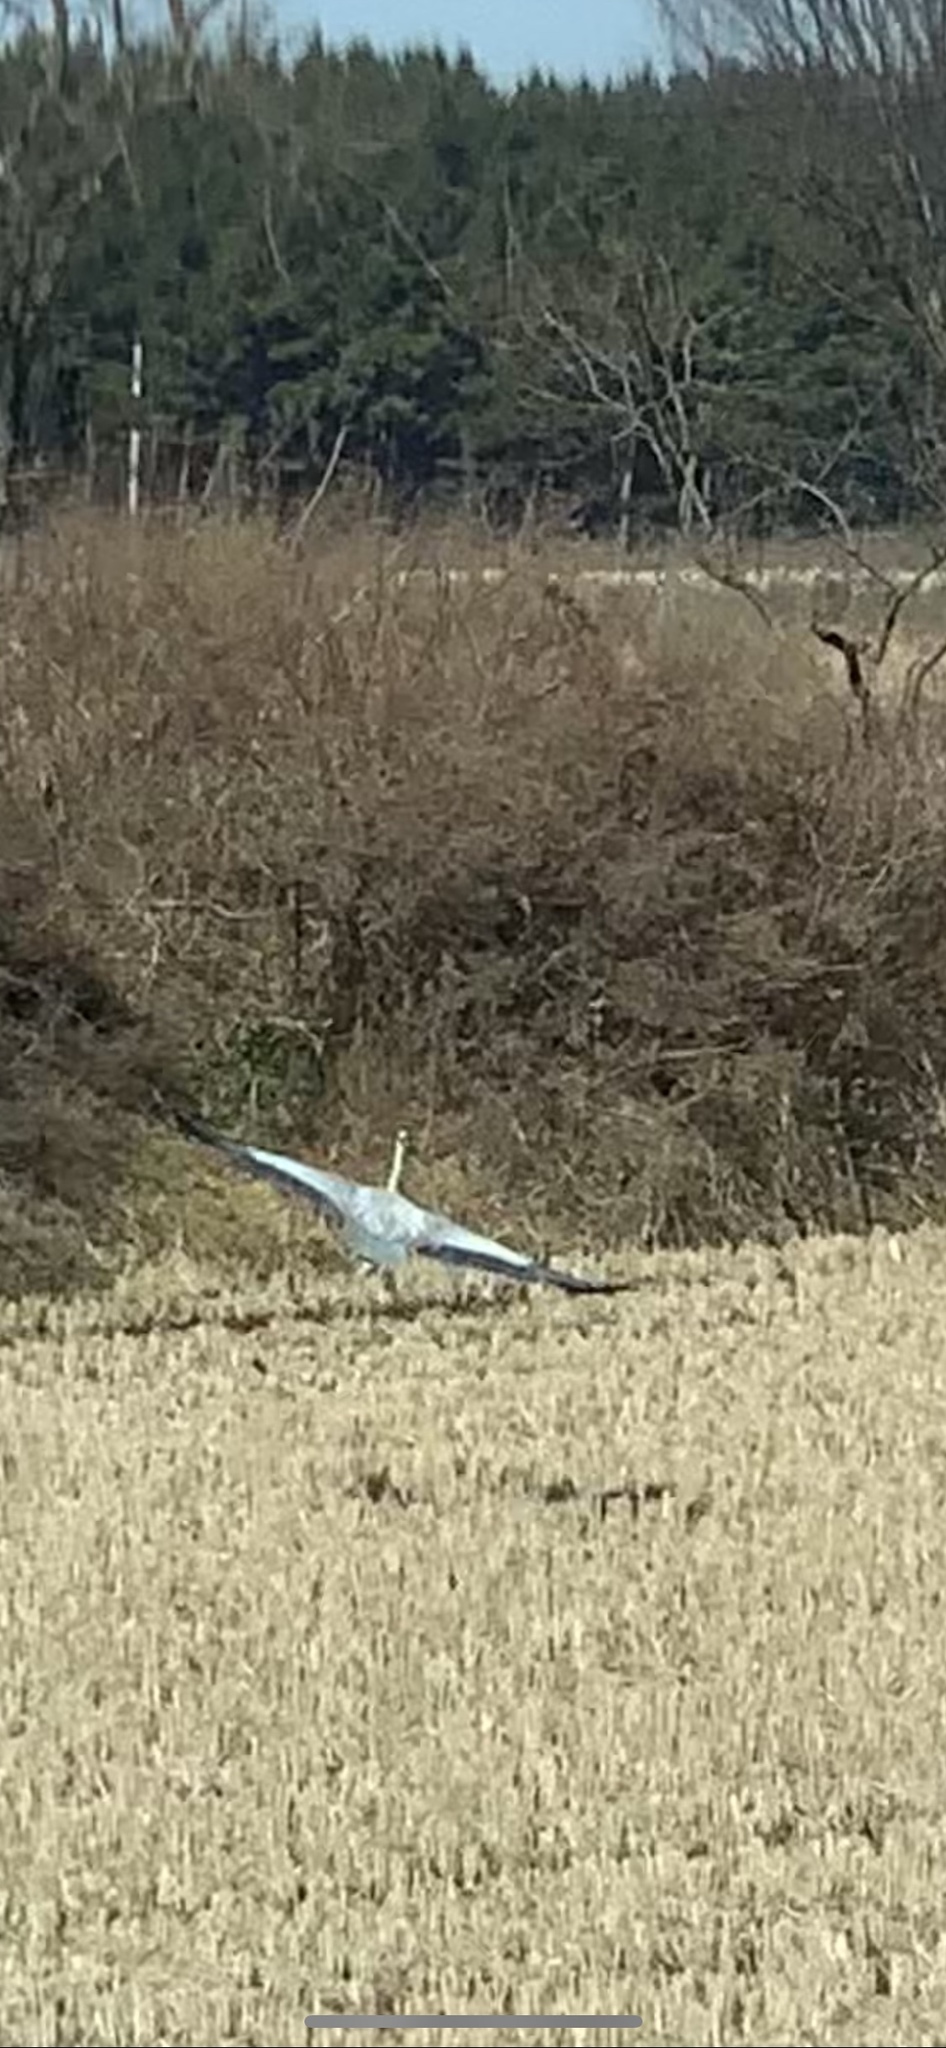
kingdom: Animalia
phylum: Chordata
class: Aves
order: Pelecaniformes
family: Ardeidae
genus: Ardea
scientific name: Ardea cinerea
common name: Grey heron
